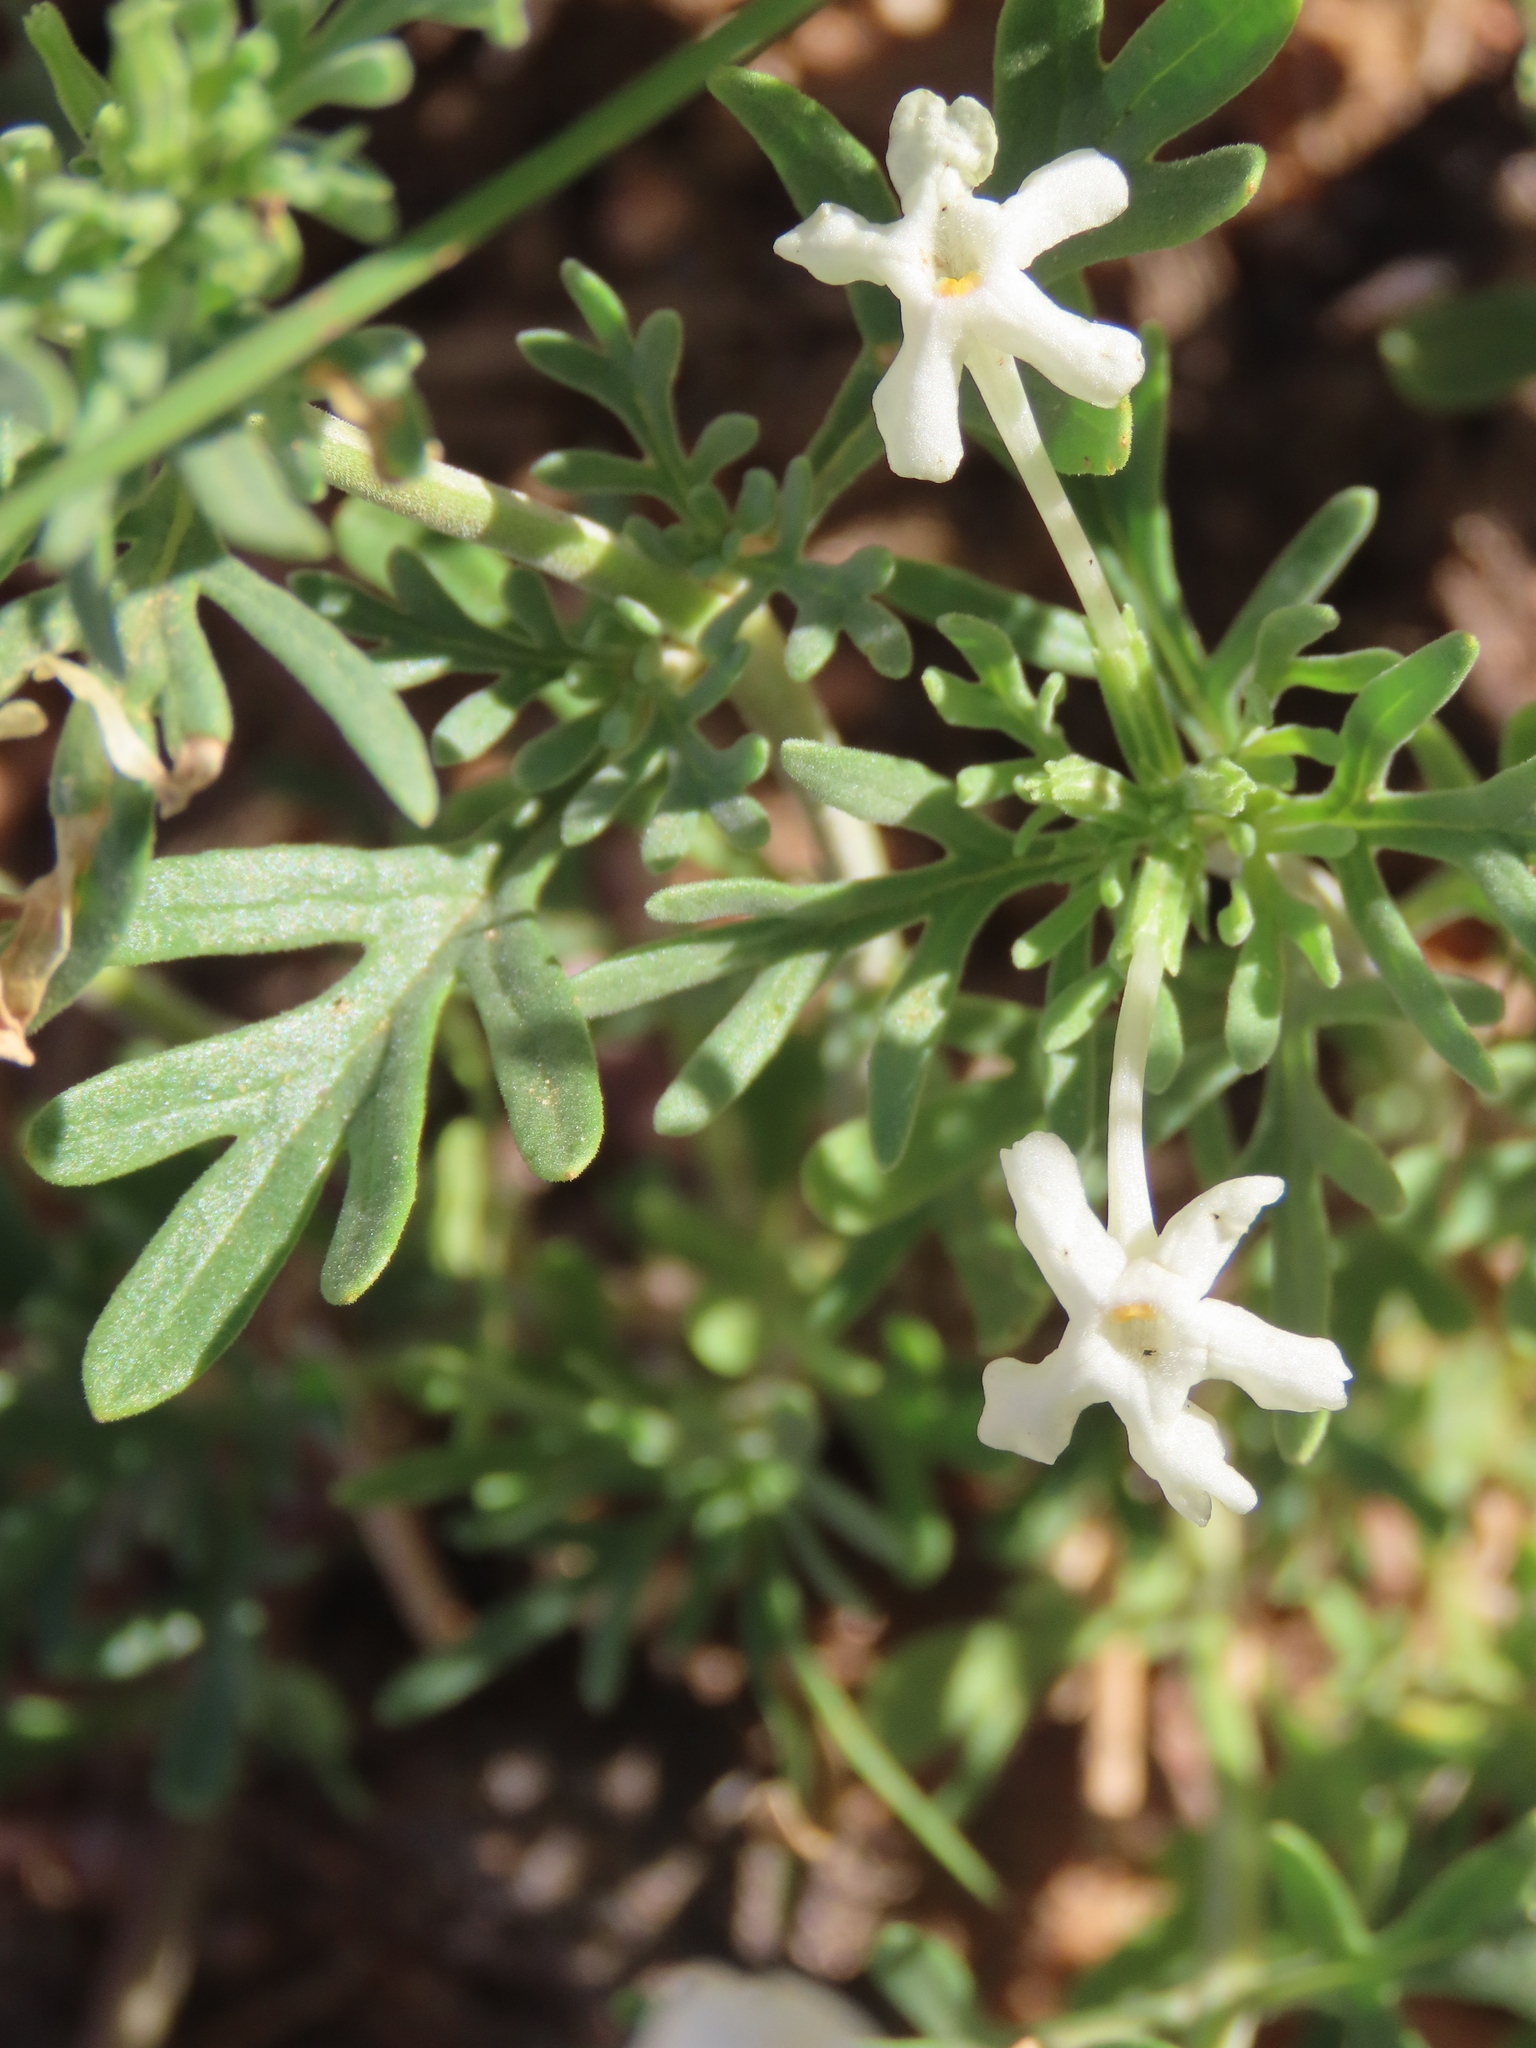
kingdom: Plantae
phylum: Tracheophyta
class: Magnoliopsida
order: Lamiales
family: Verbenaceae
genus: Chascanum
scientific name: Chascanum pinnatifidum
